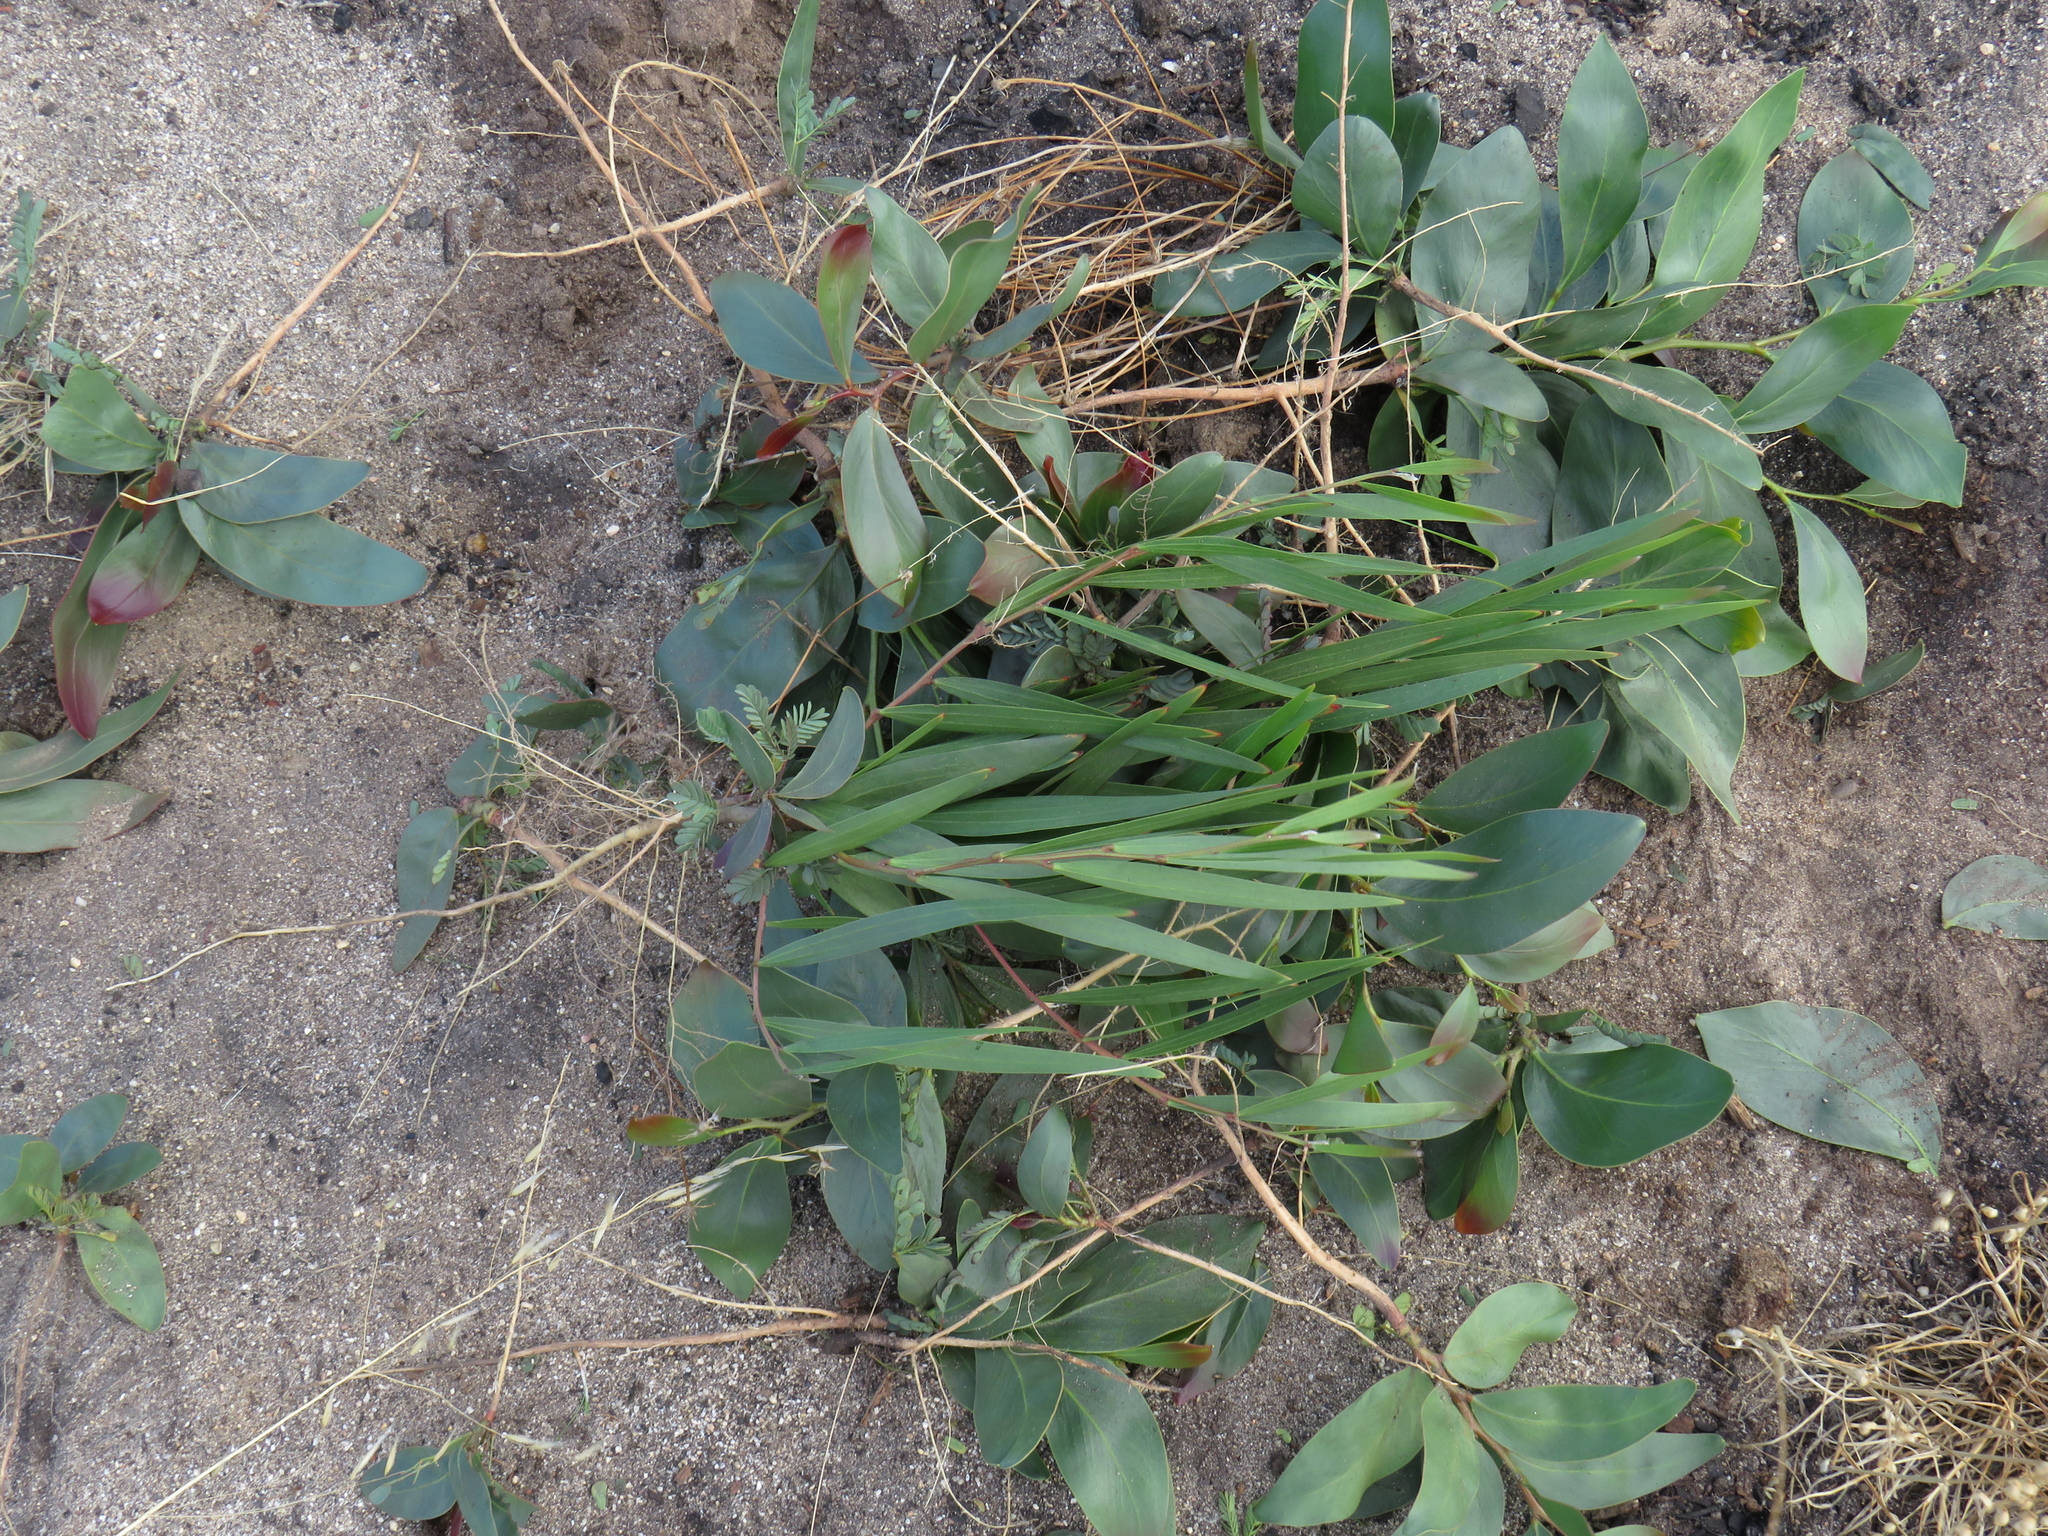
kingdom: Plantae
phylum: Tracheophyta
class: Magnoliopsida
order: Fabales
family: Fabaceae
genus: Acacia
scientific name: Acacia longifolia
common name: Sydney golden wattle
